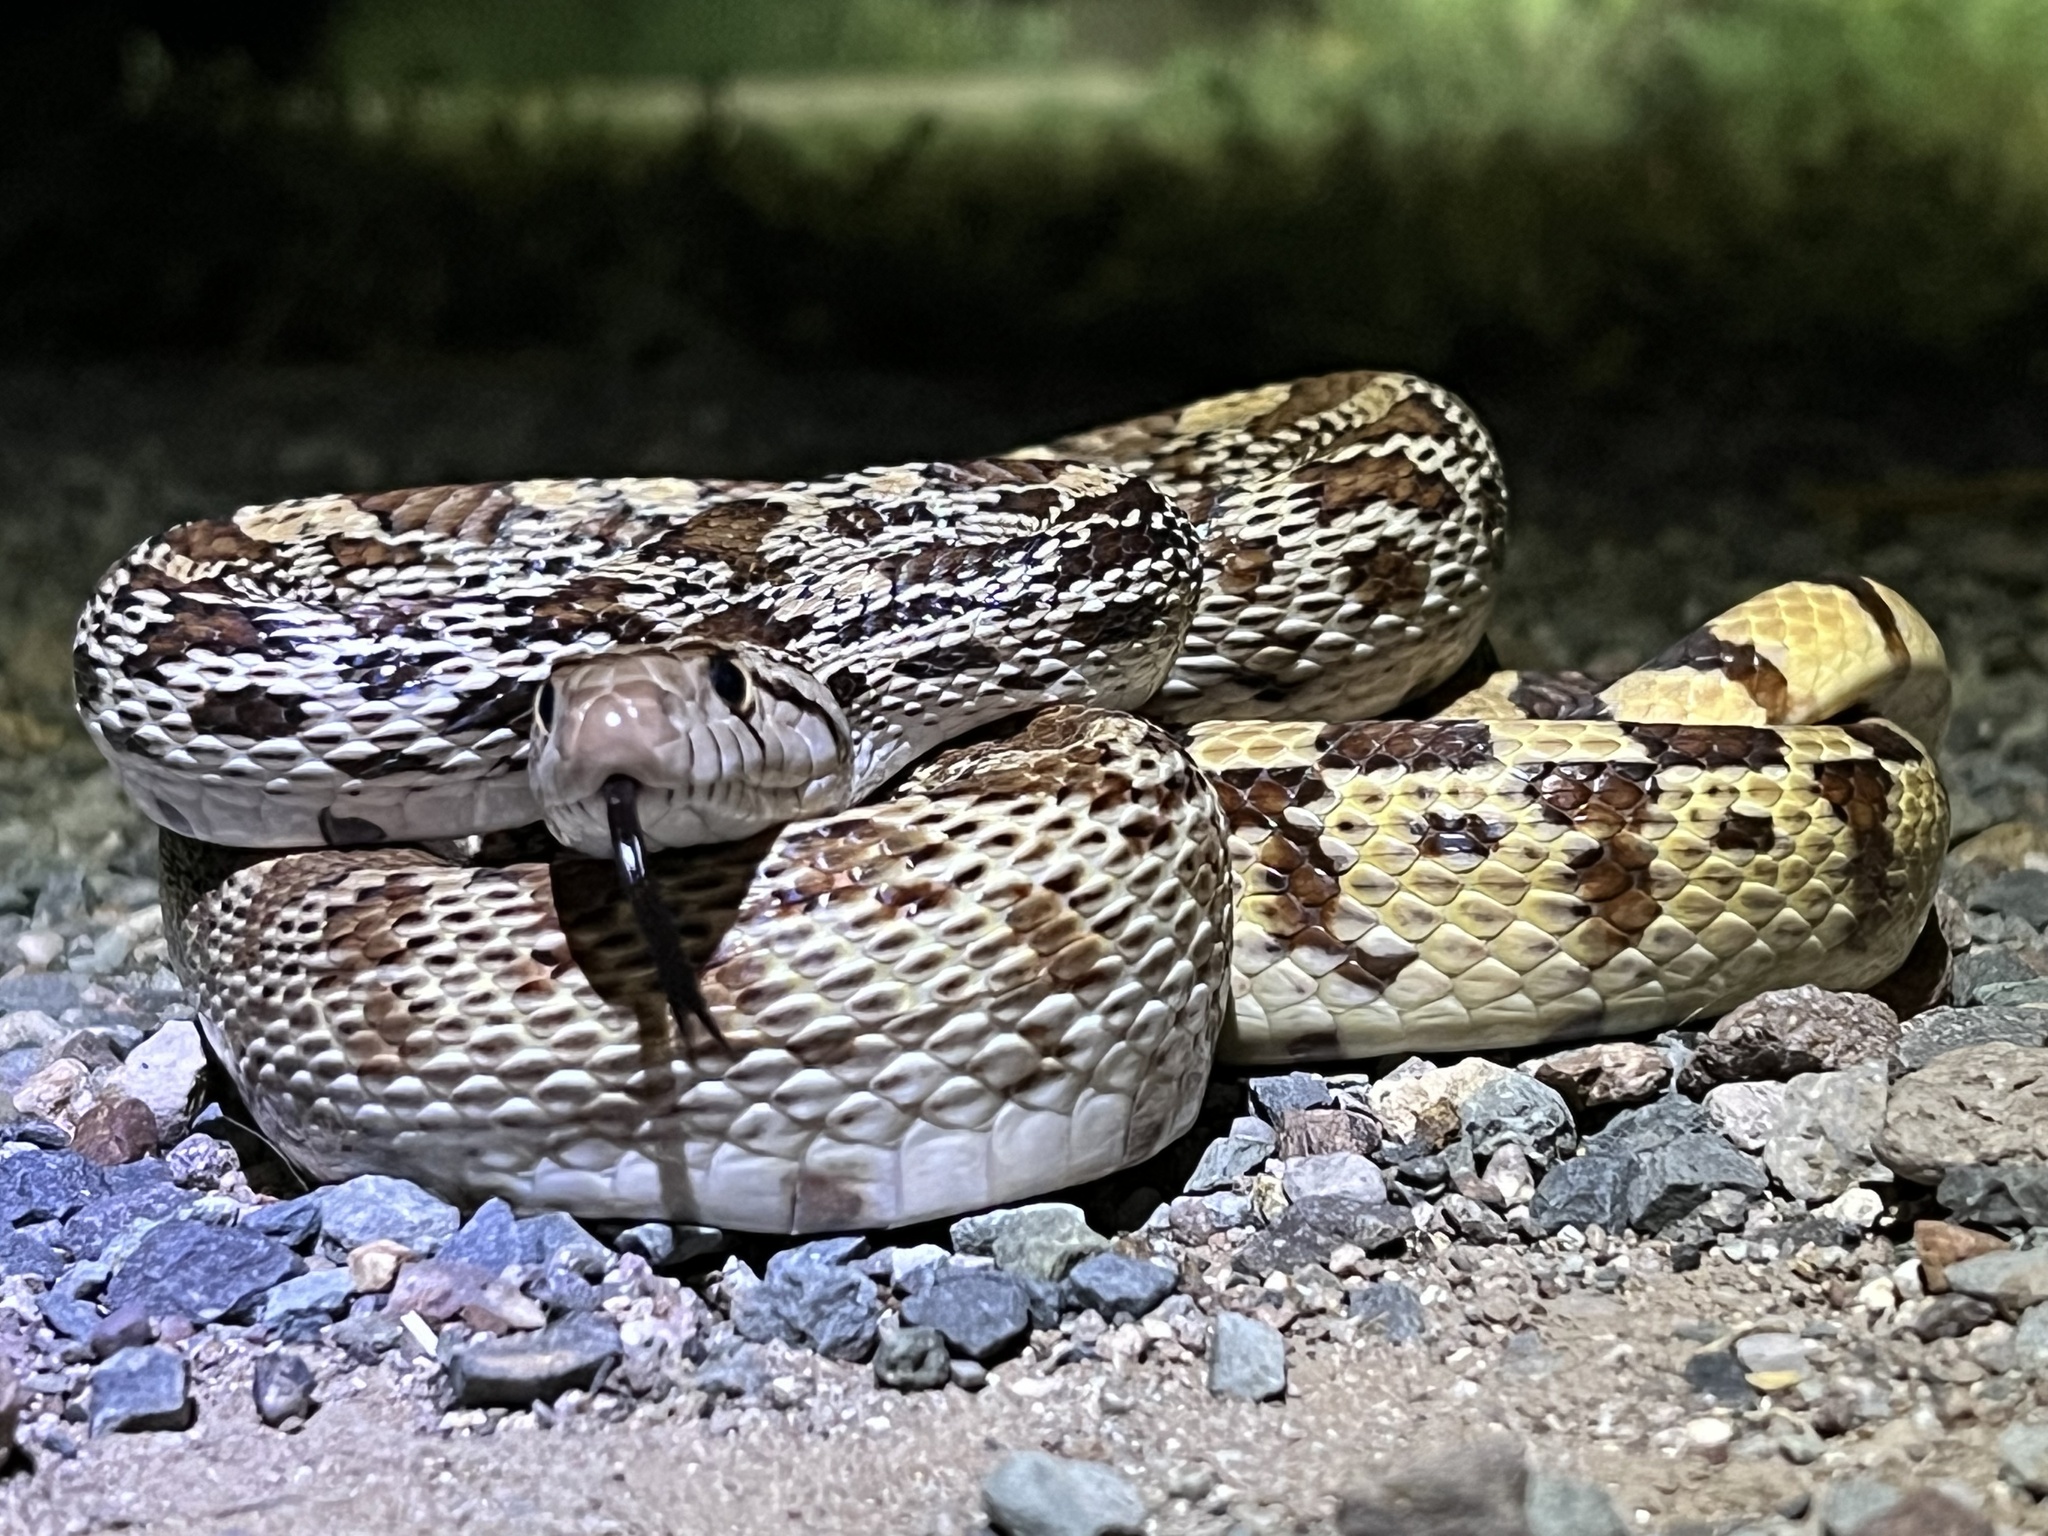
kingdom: Animalia
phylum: Chordata
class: Squamata
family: Colubridae
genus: Pituophis
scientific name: Pituophis catenifer
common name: Gopher snake
